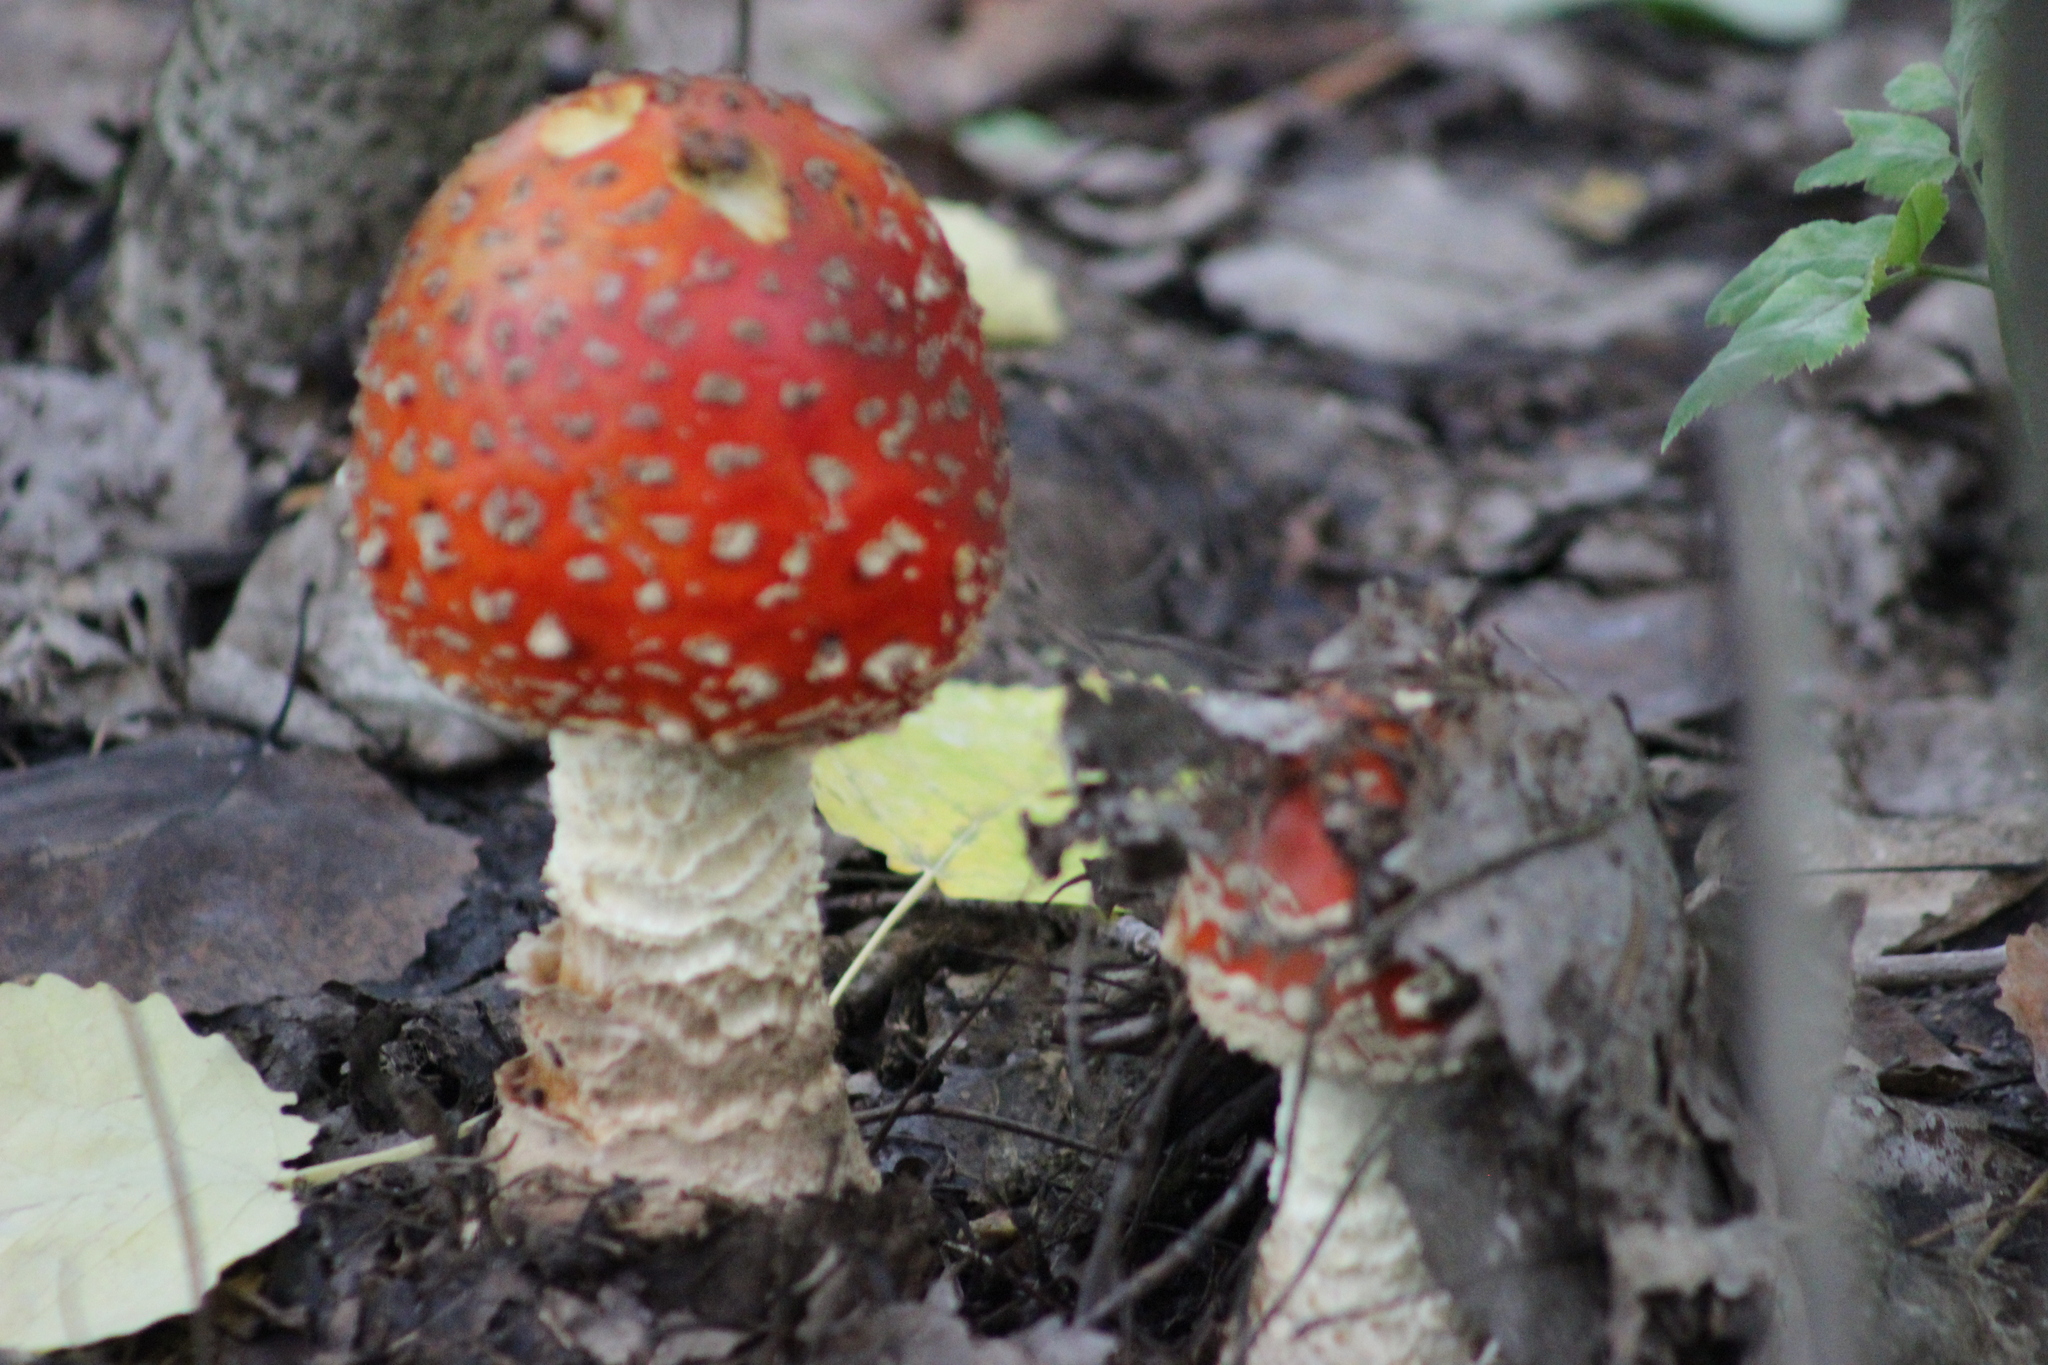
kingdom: Fungi
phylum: Basidiomycota
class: Agaricomycetes
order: Agaricales
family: Amanitaceae
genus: Amanita
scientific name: Amanita muscaria
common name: Fly agaric
